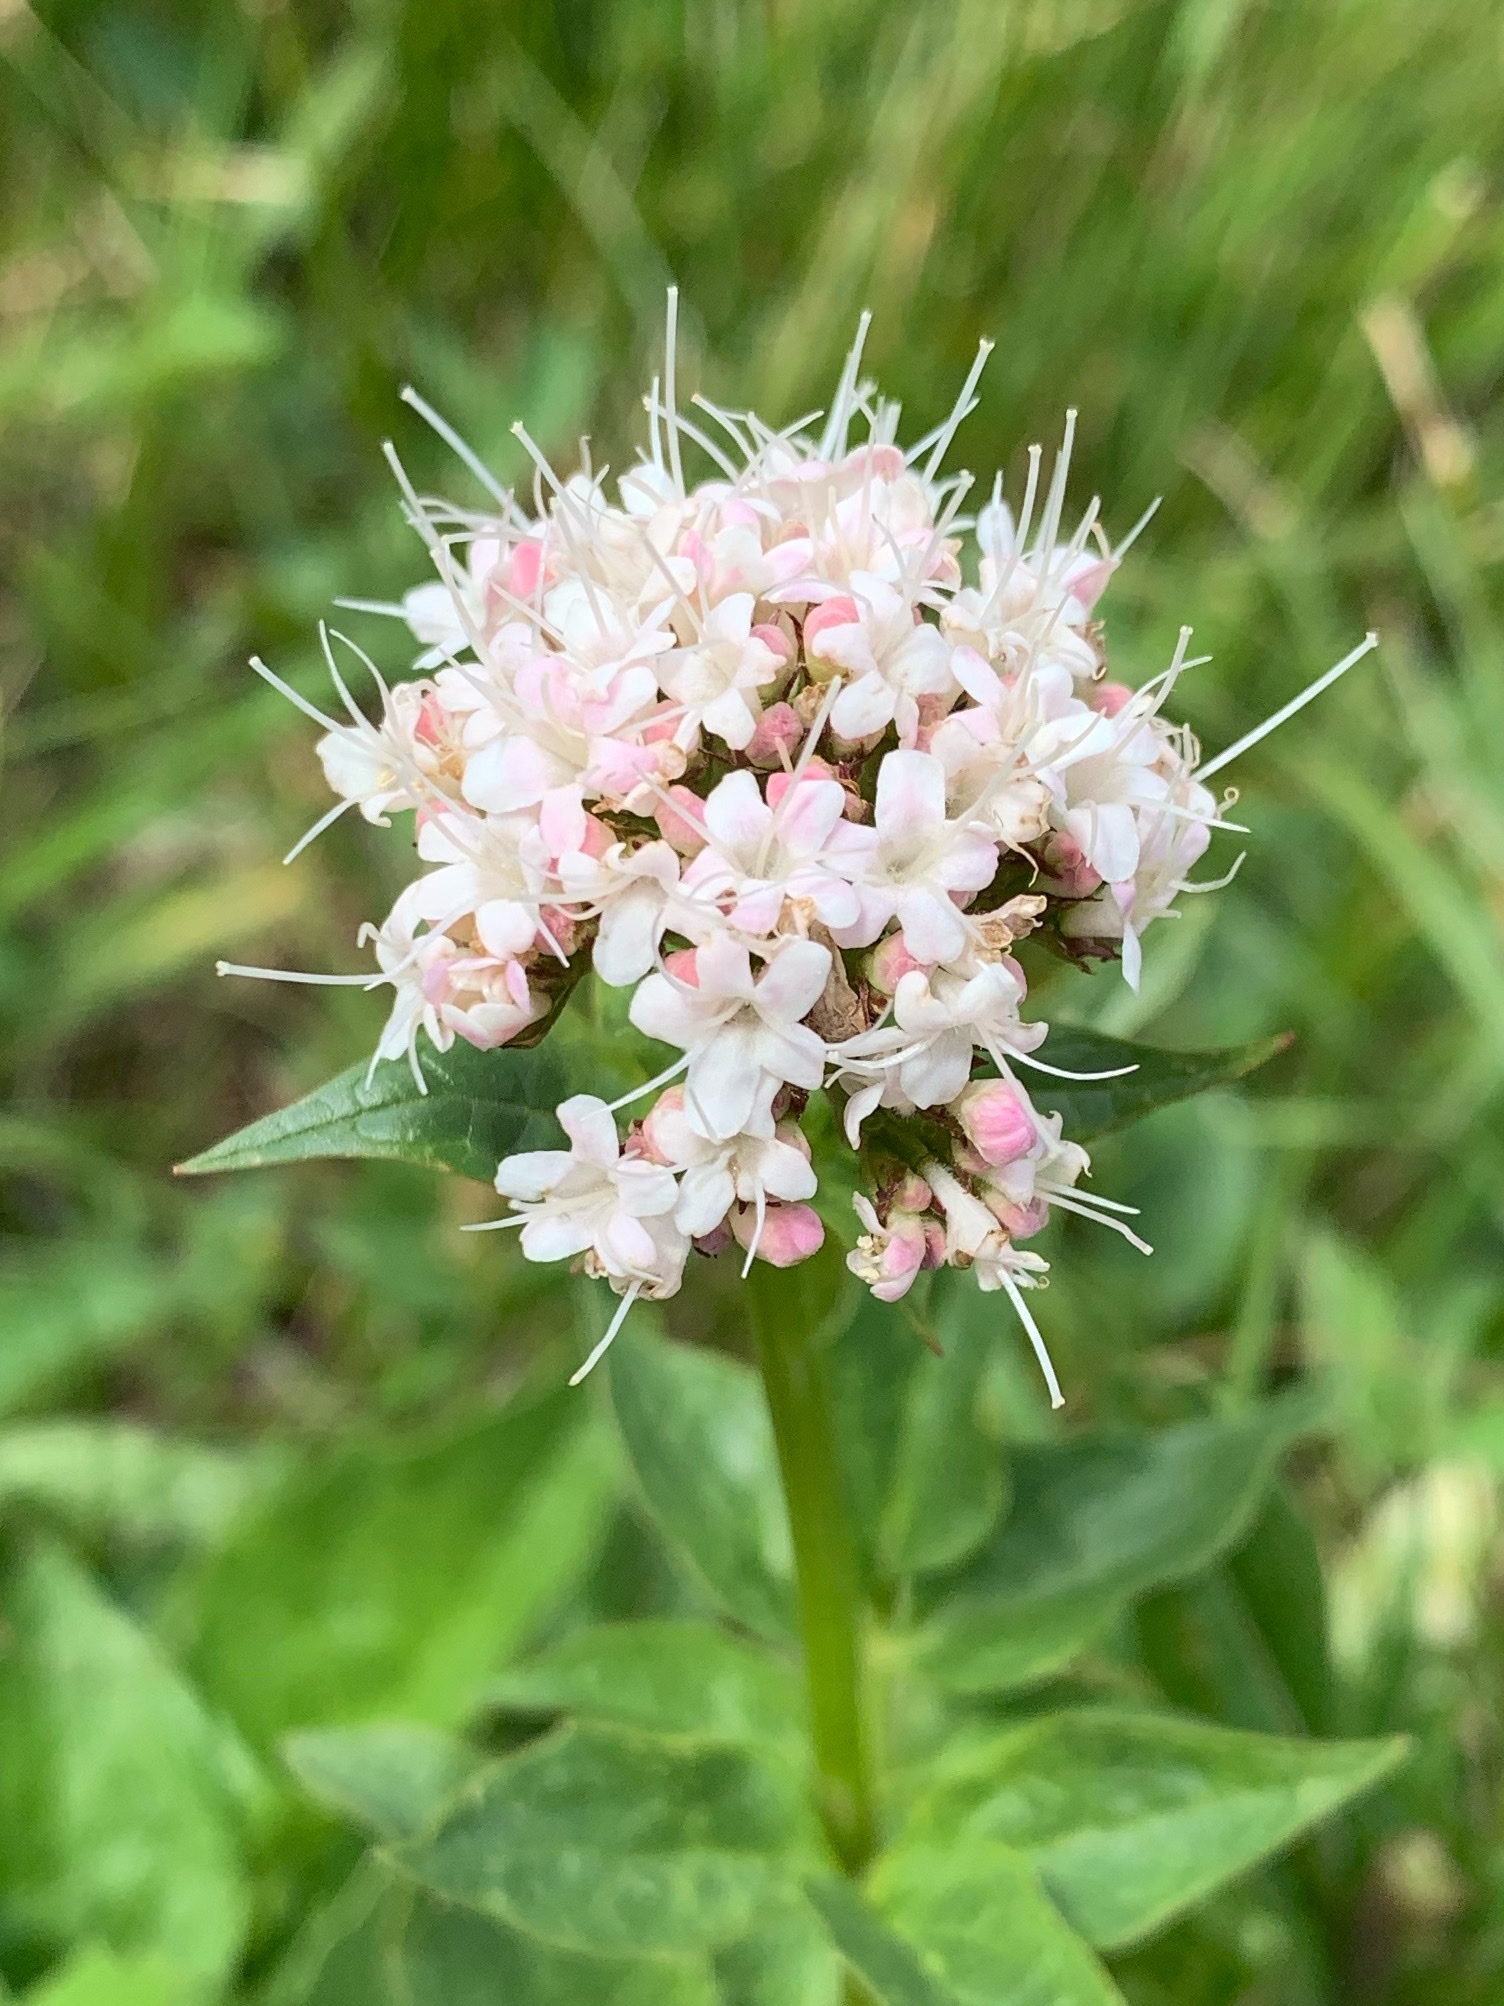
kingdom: Plantae
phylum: Tracheophyta
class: Magnoliopsida
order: Dipsacales
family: Caprifoliaceae
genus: Valeriana
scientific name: Valeriana sitchensis
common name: Pacific valerian
